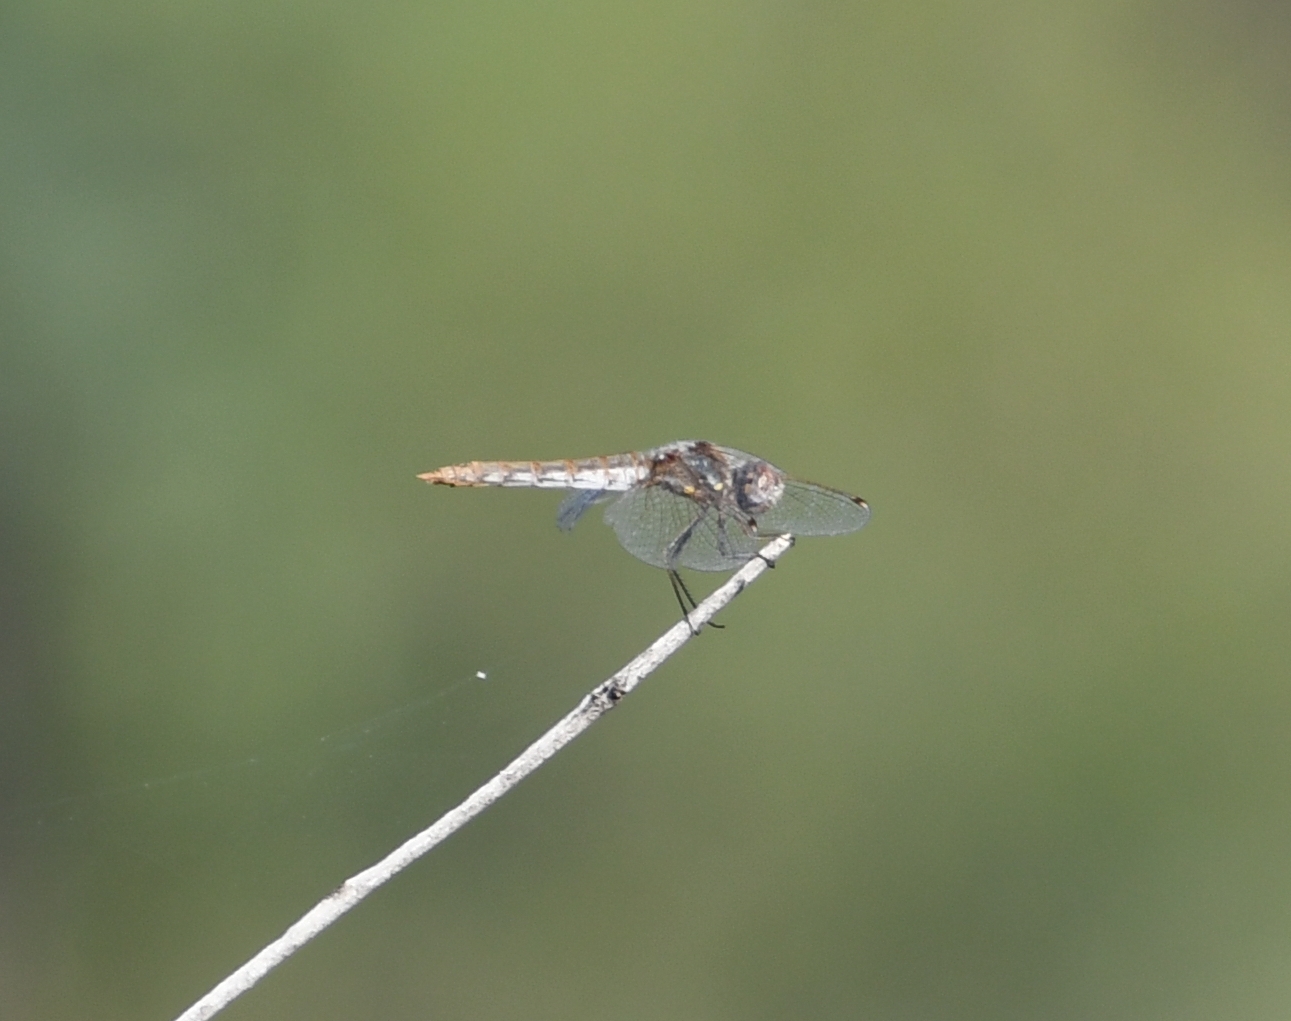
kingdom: Animalia
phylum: Arthropoda
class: Insecta
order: Odonata
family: Libellulidae
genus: Sympetrum
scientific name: Sympetrum corruptum
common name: Variegated meadowhawk
